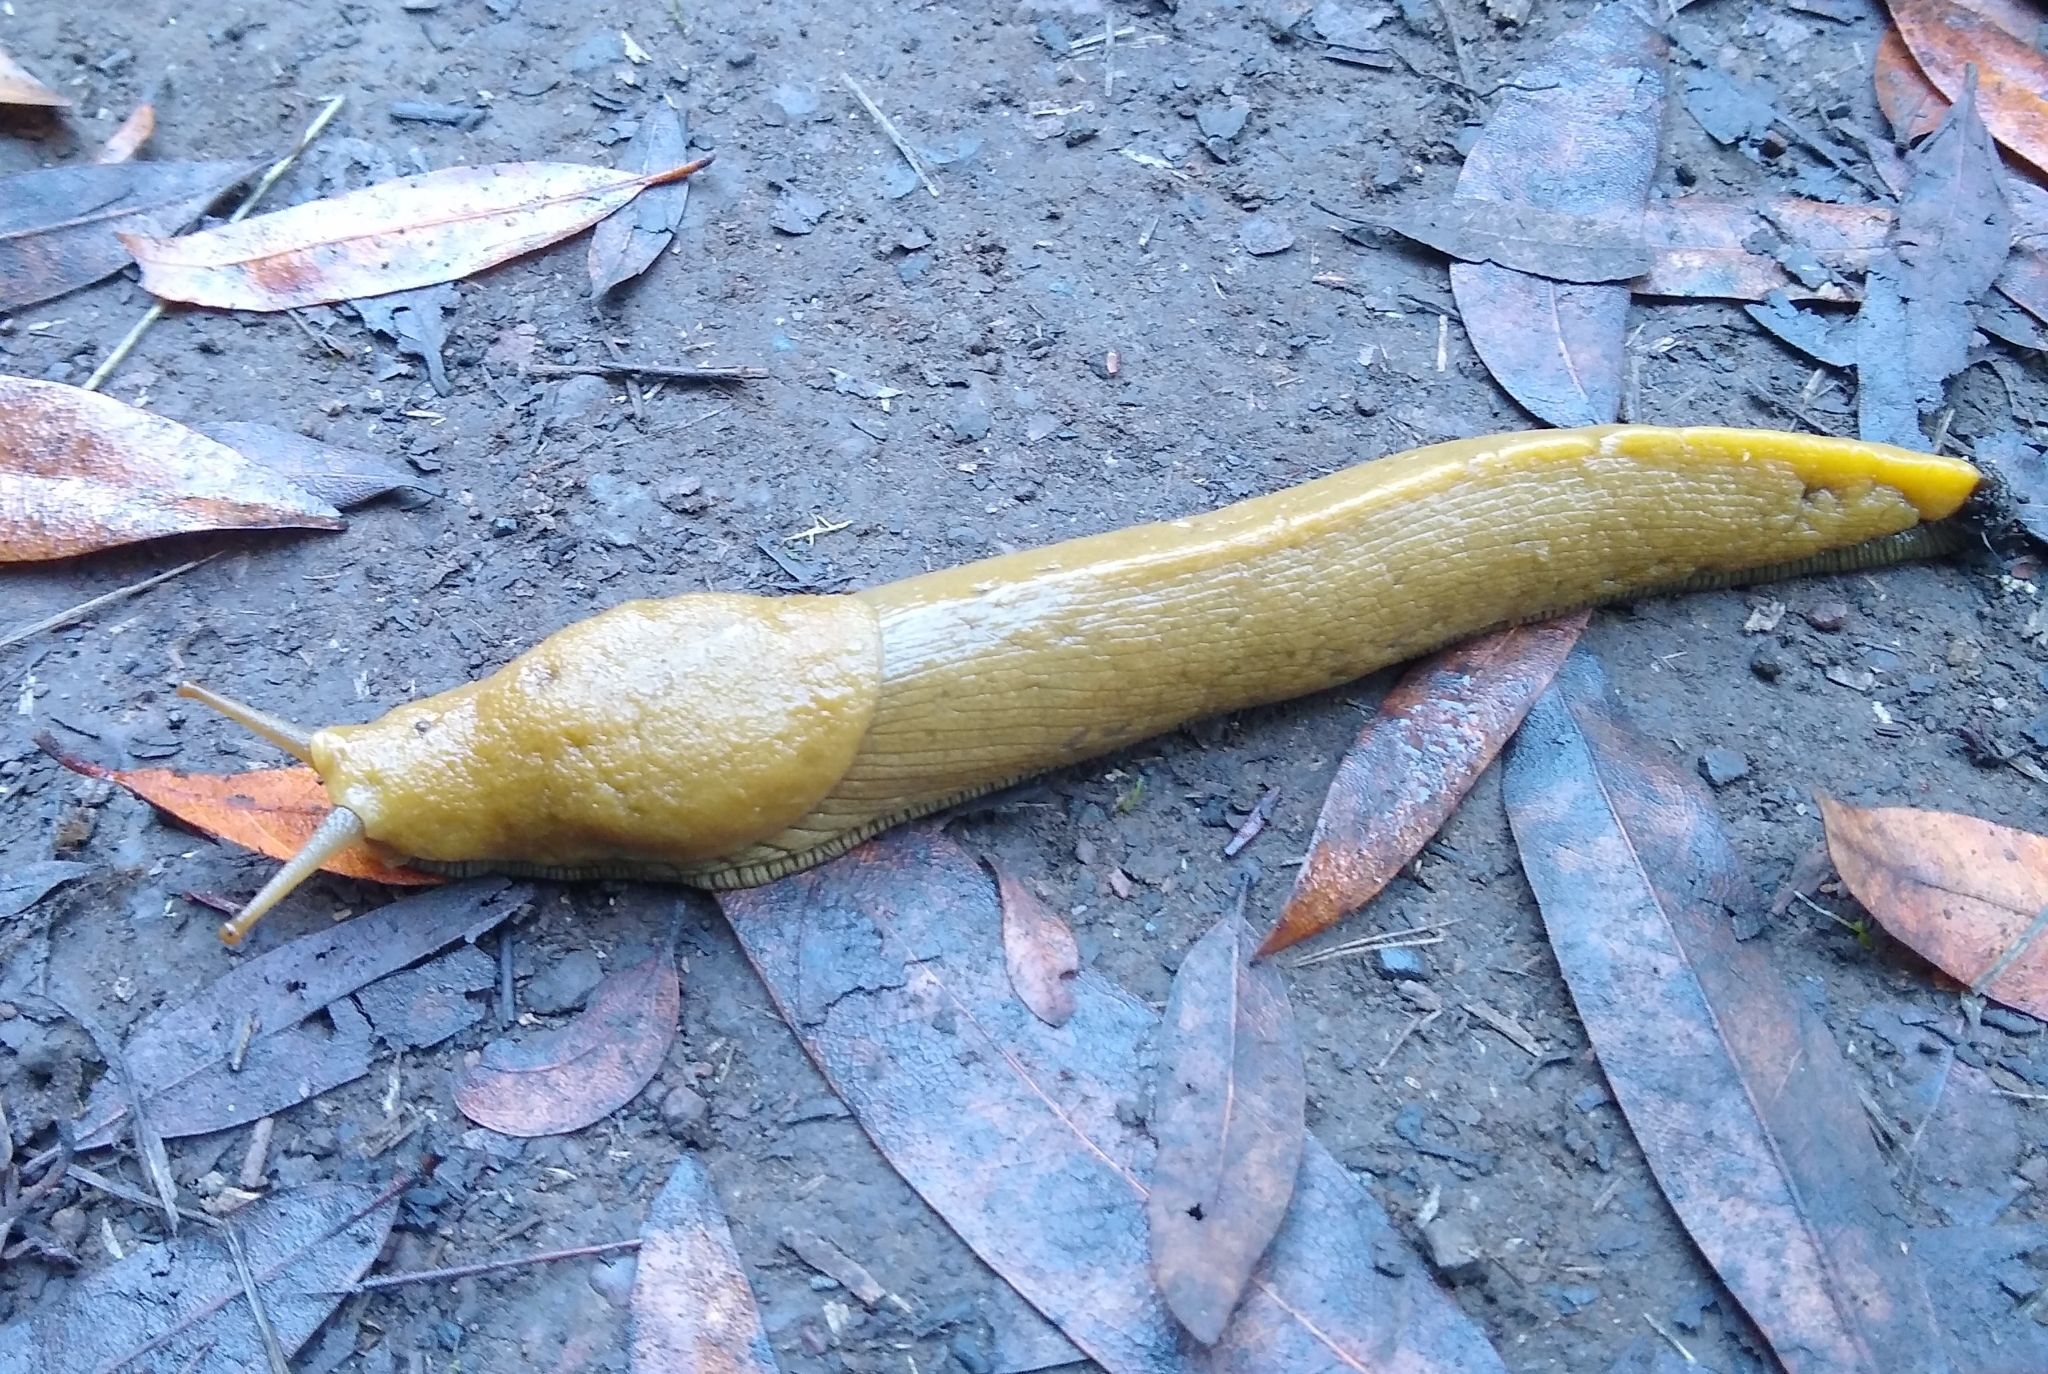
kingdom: Animalia
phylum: Mollusca
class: Gastropoda
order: Stylommatophora
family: Ariolimacidae
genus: Ariolimax
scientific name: Ariolimax buttoni
